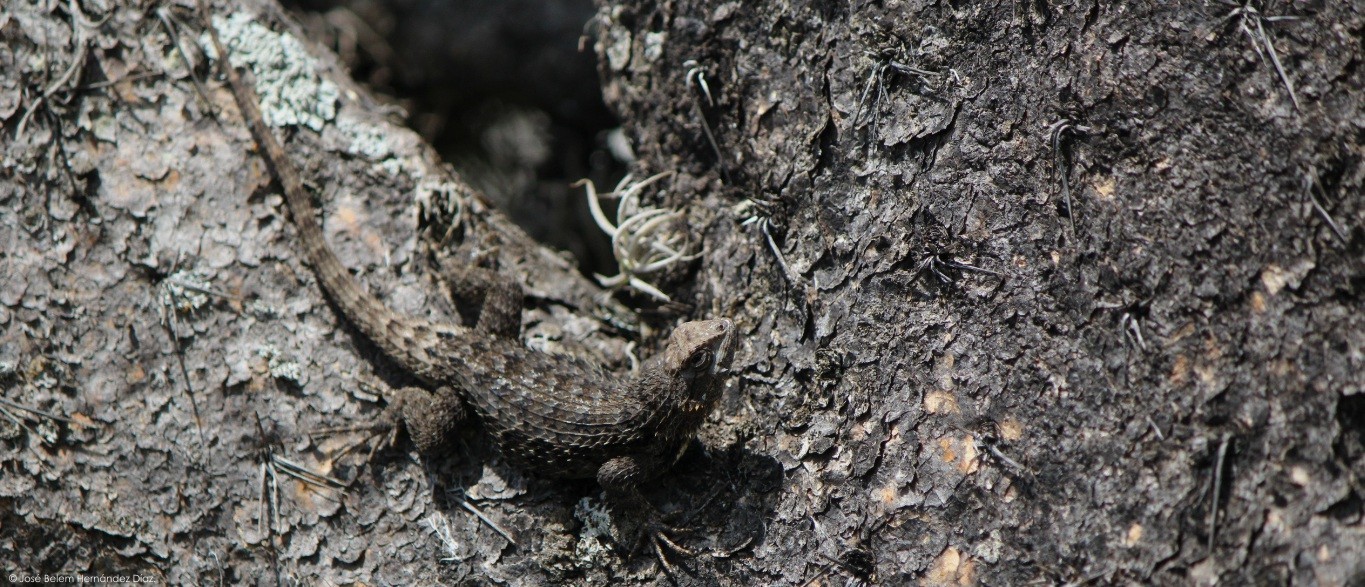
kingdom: Animalia
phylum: Chordata
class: Squamata
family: Phrynosomatidae
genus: Sceloporus
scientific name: Sceloporus spinosus
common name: Blue-spotted spiny lizard [caeruleopunctatus]
